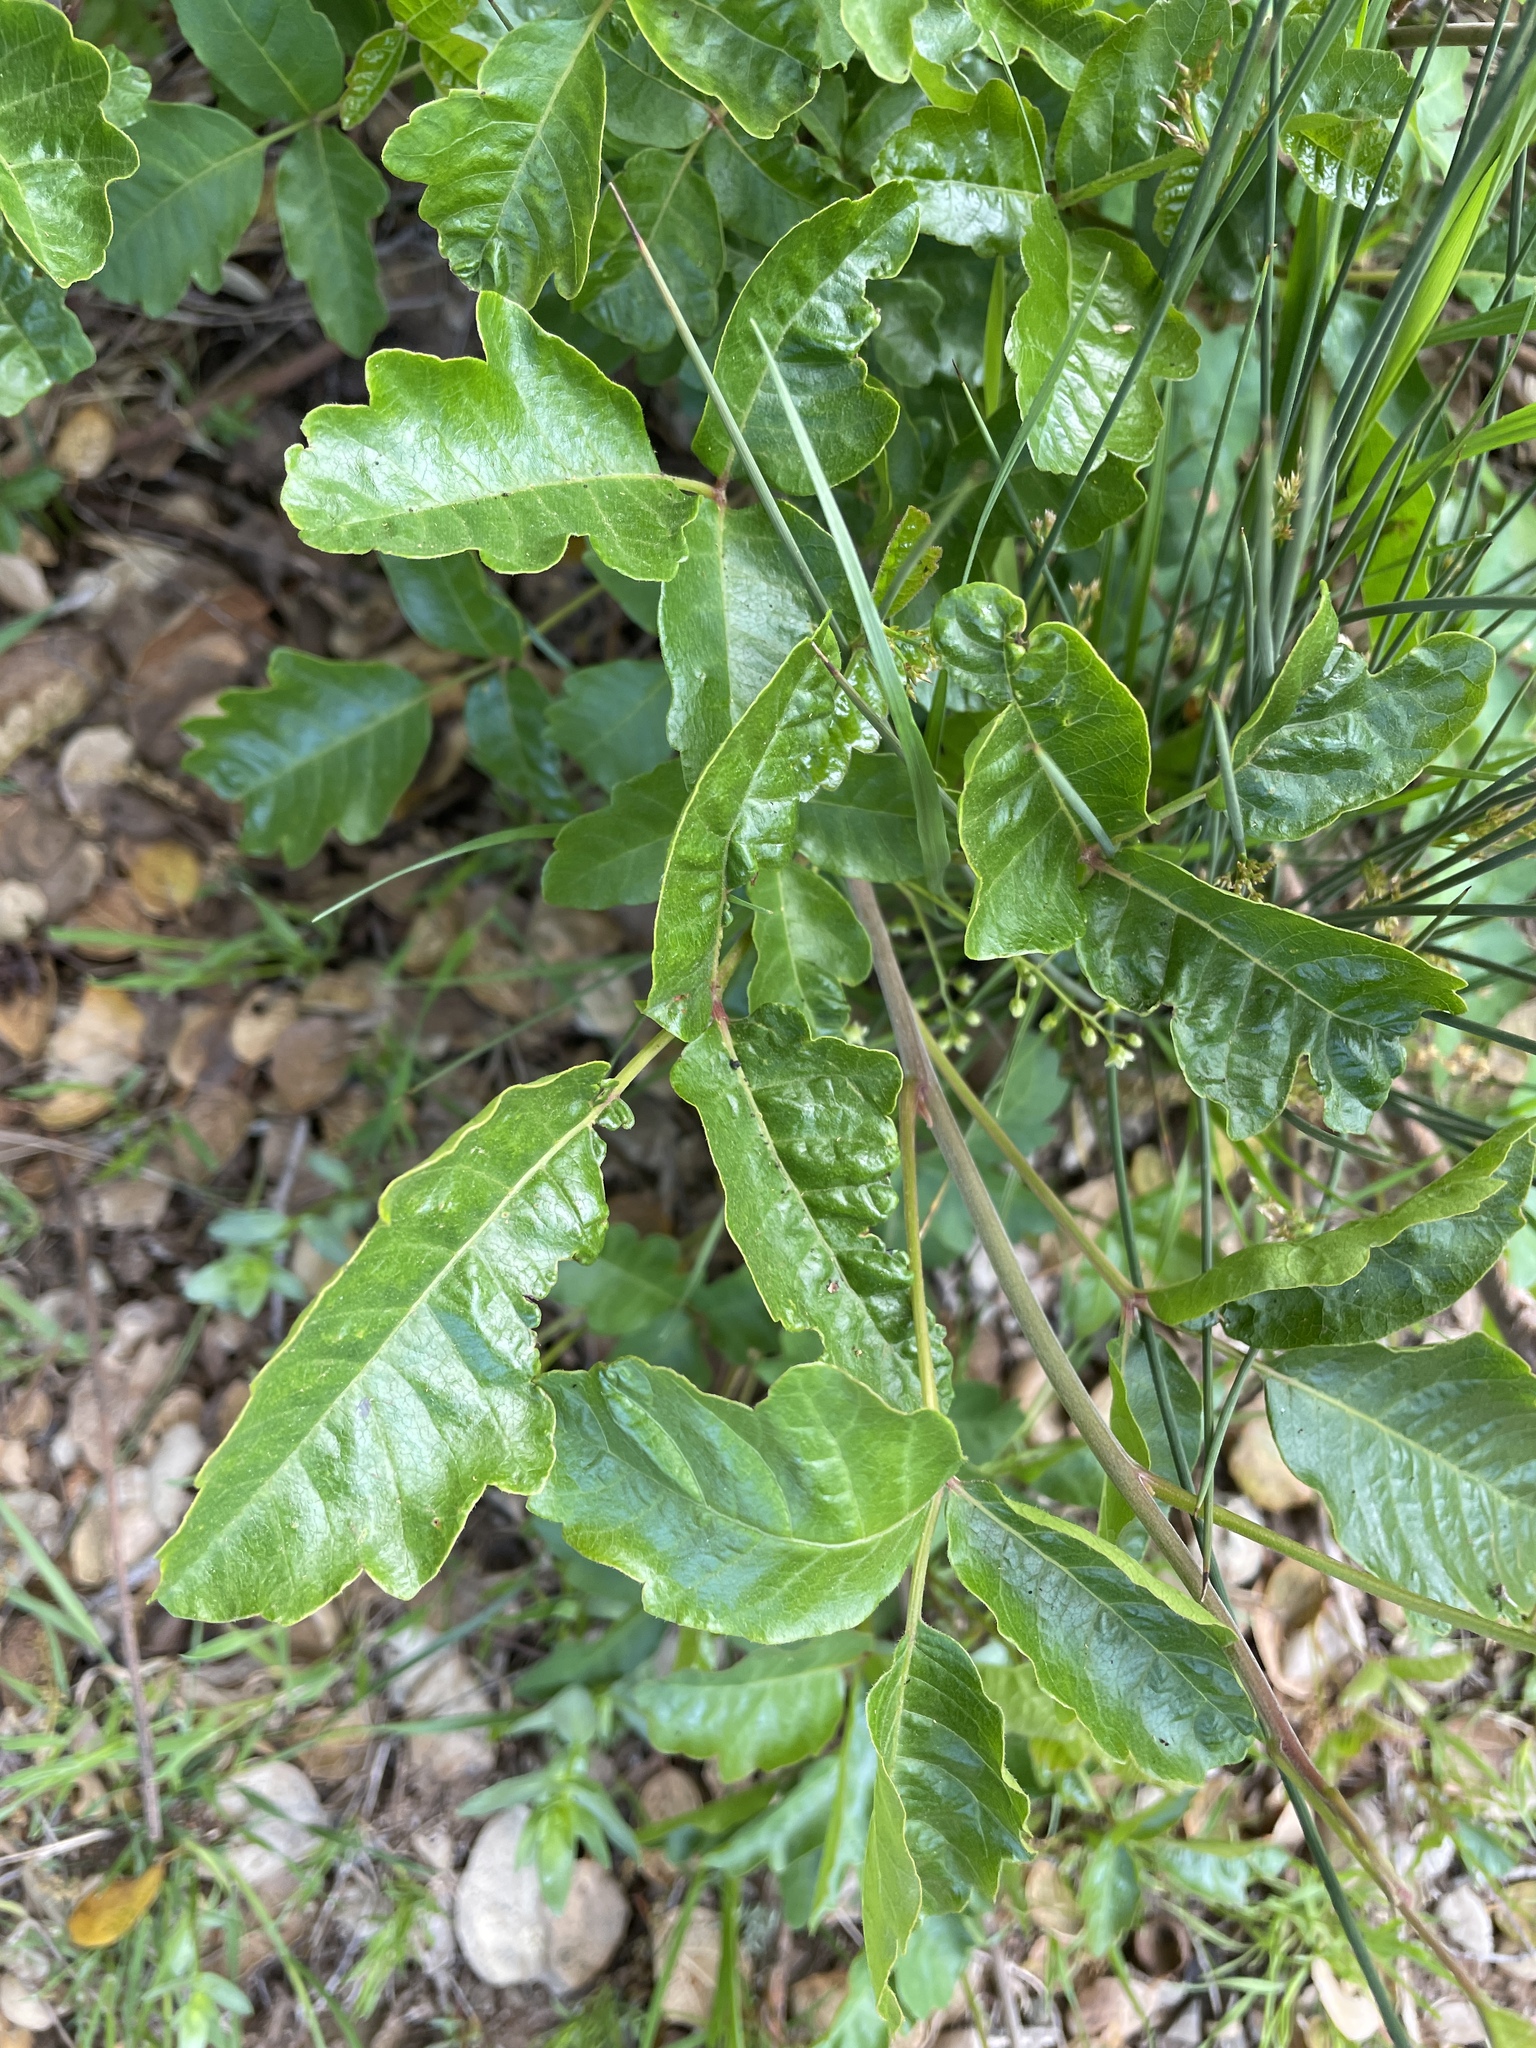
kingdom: Plantae
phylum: Tracheophyta
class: Magnoliopsida
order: Sapindales
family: Anacardiaceae
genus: Toxicodendron
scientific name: Toxicodendron diversilobum
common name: Pacific poison-oak
